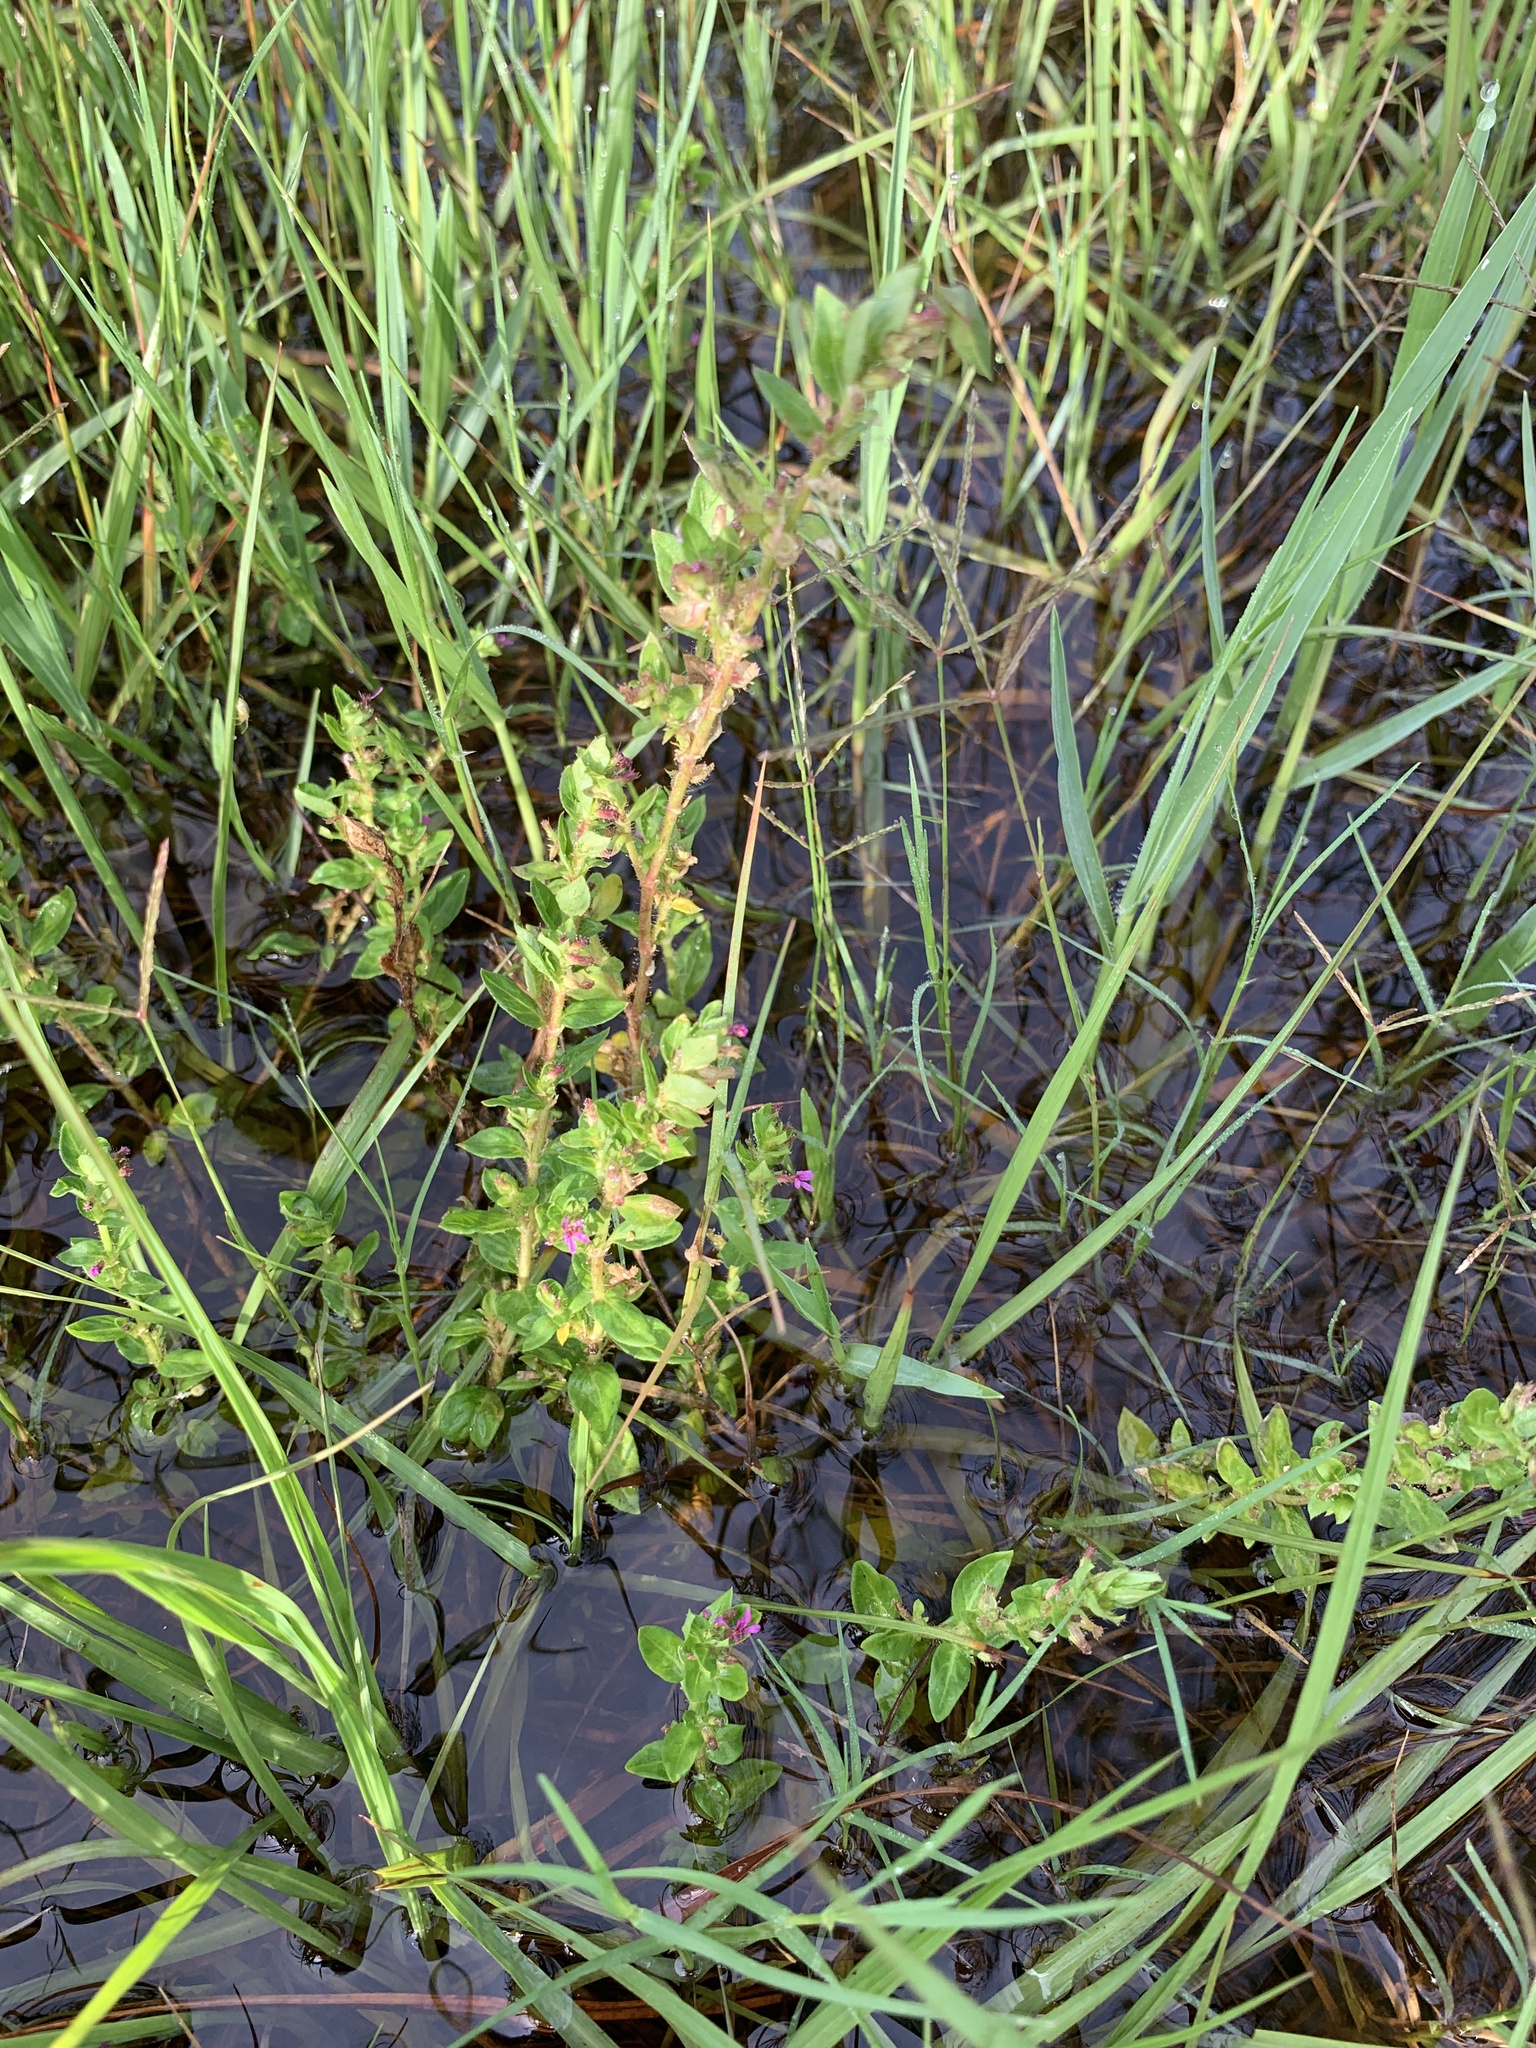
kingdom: Plantae
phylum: Tracheophyta
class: Magnoliopsida
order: Myrtales
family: Lythraceae
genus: Cuphea
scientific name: Cuphea carthagenensis
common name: Colombian waxweed
